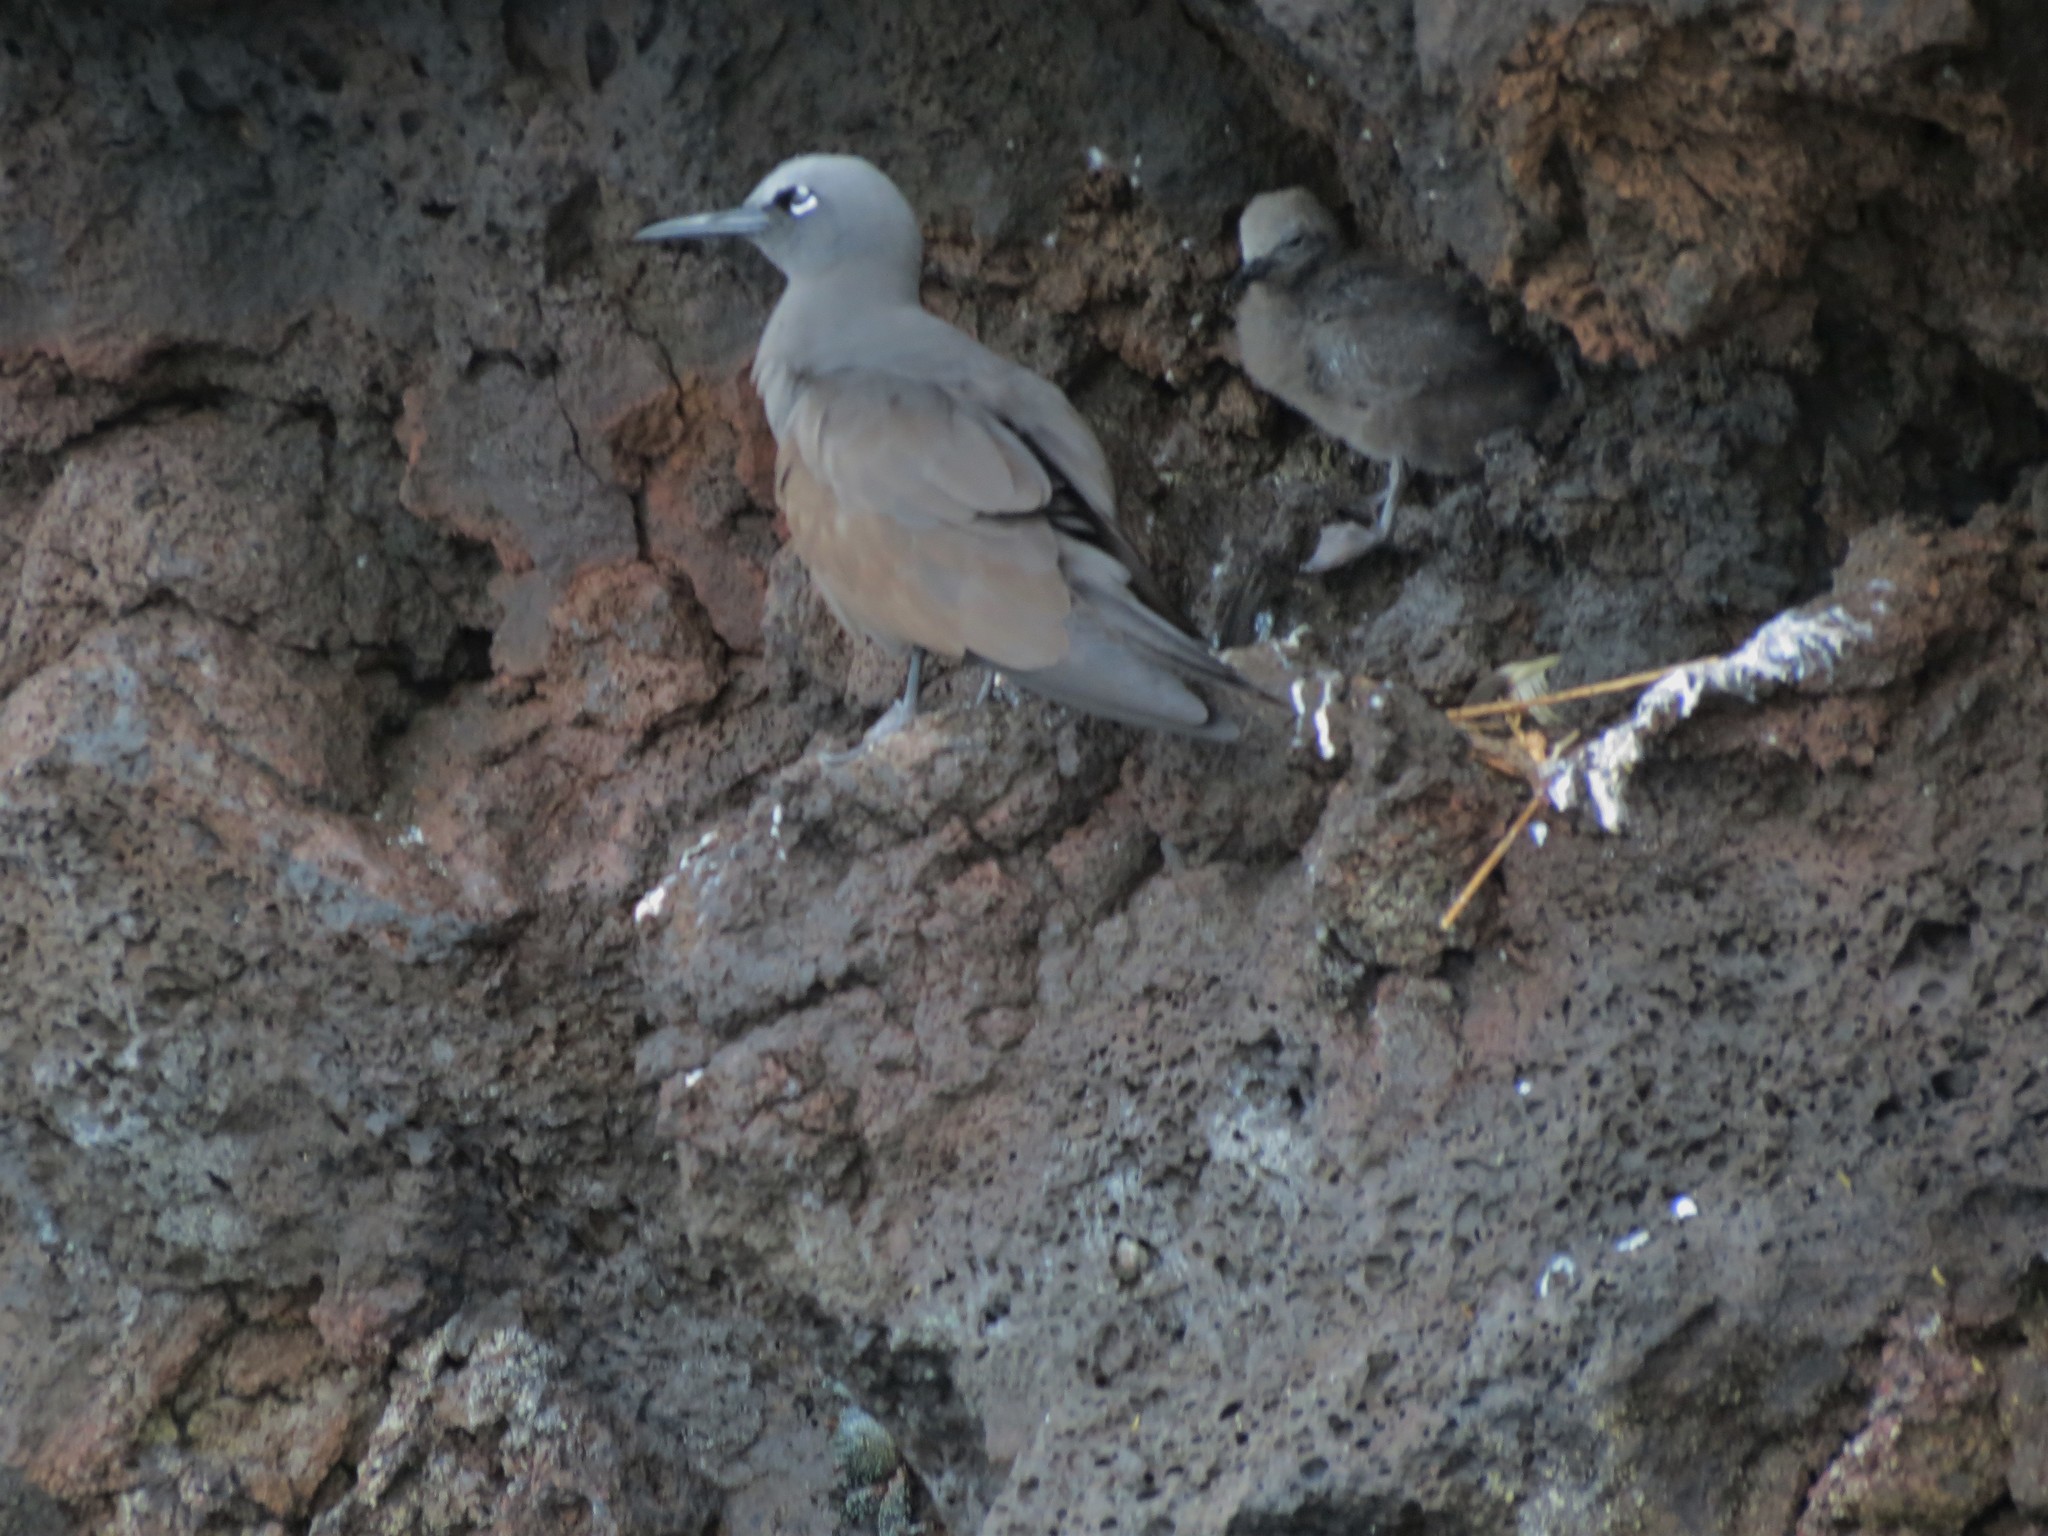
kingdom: Animalia
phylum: Chordata
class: Aves
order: Charadriiformes
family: Laridae
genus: Anous
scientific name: Anous stolidus
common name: Brown noddy
